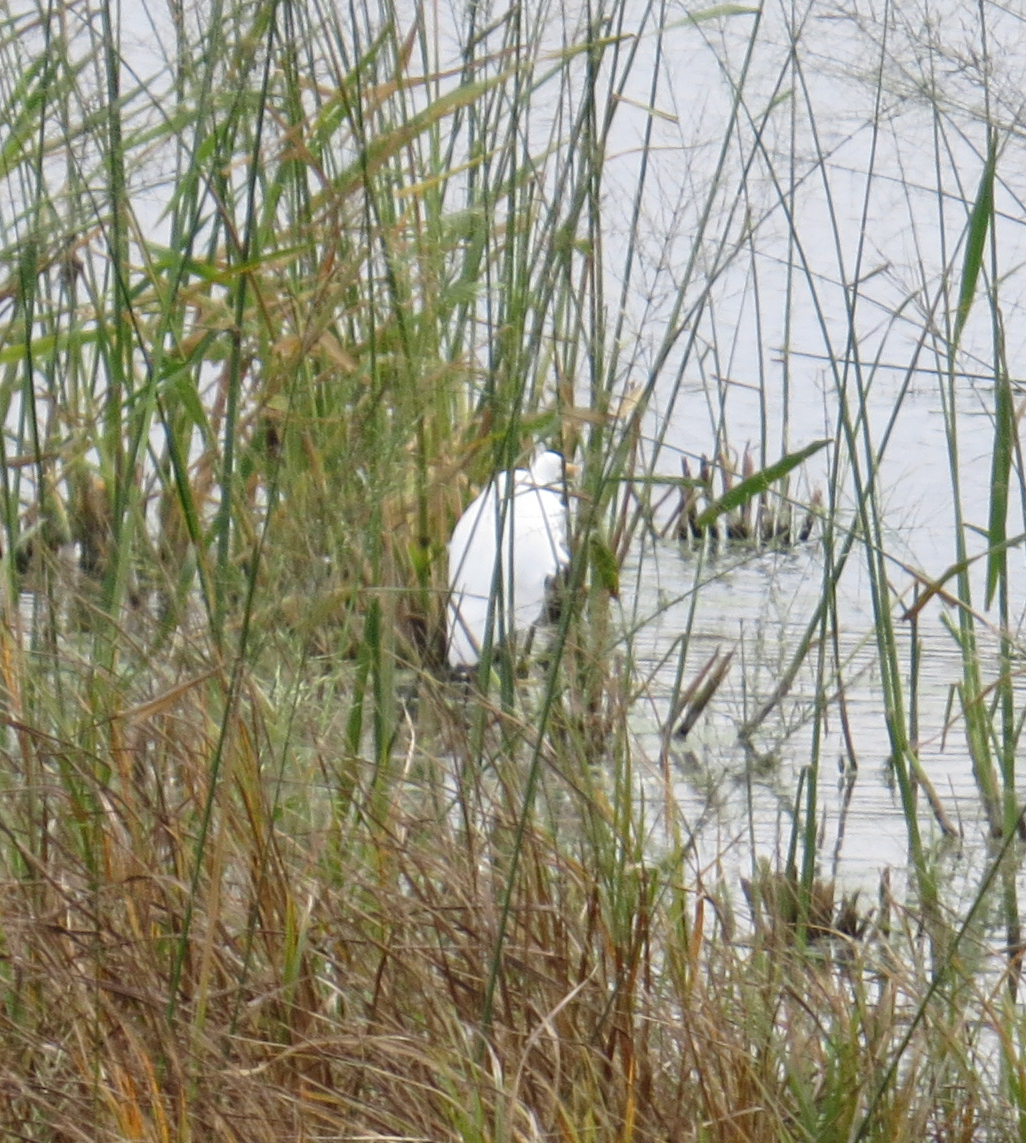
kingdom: Animalia
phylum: Chordata
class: Aves
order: Pelecaniformes
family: Ardeidae
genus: Ardea
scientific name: Ardea alba
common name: Great egret
